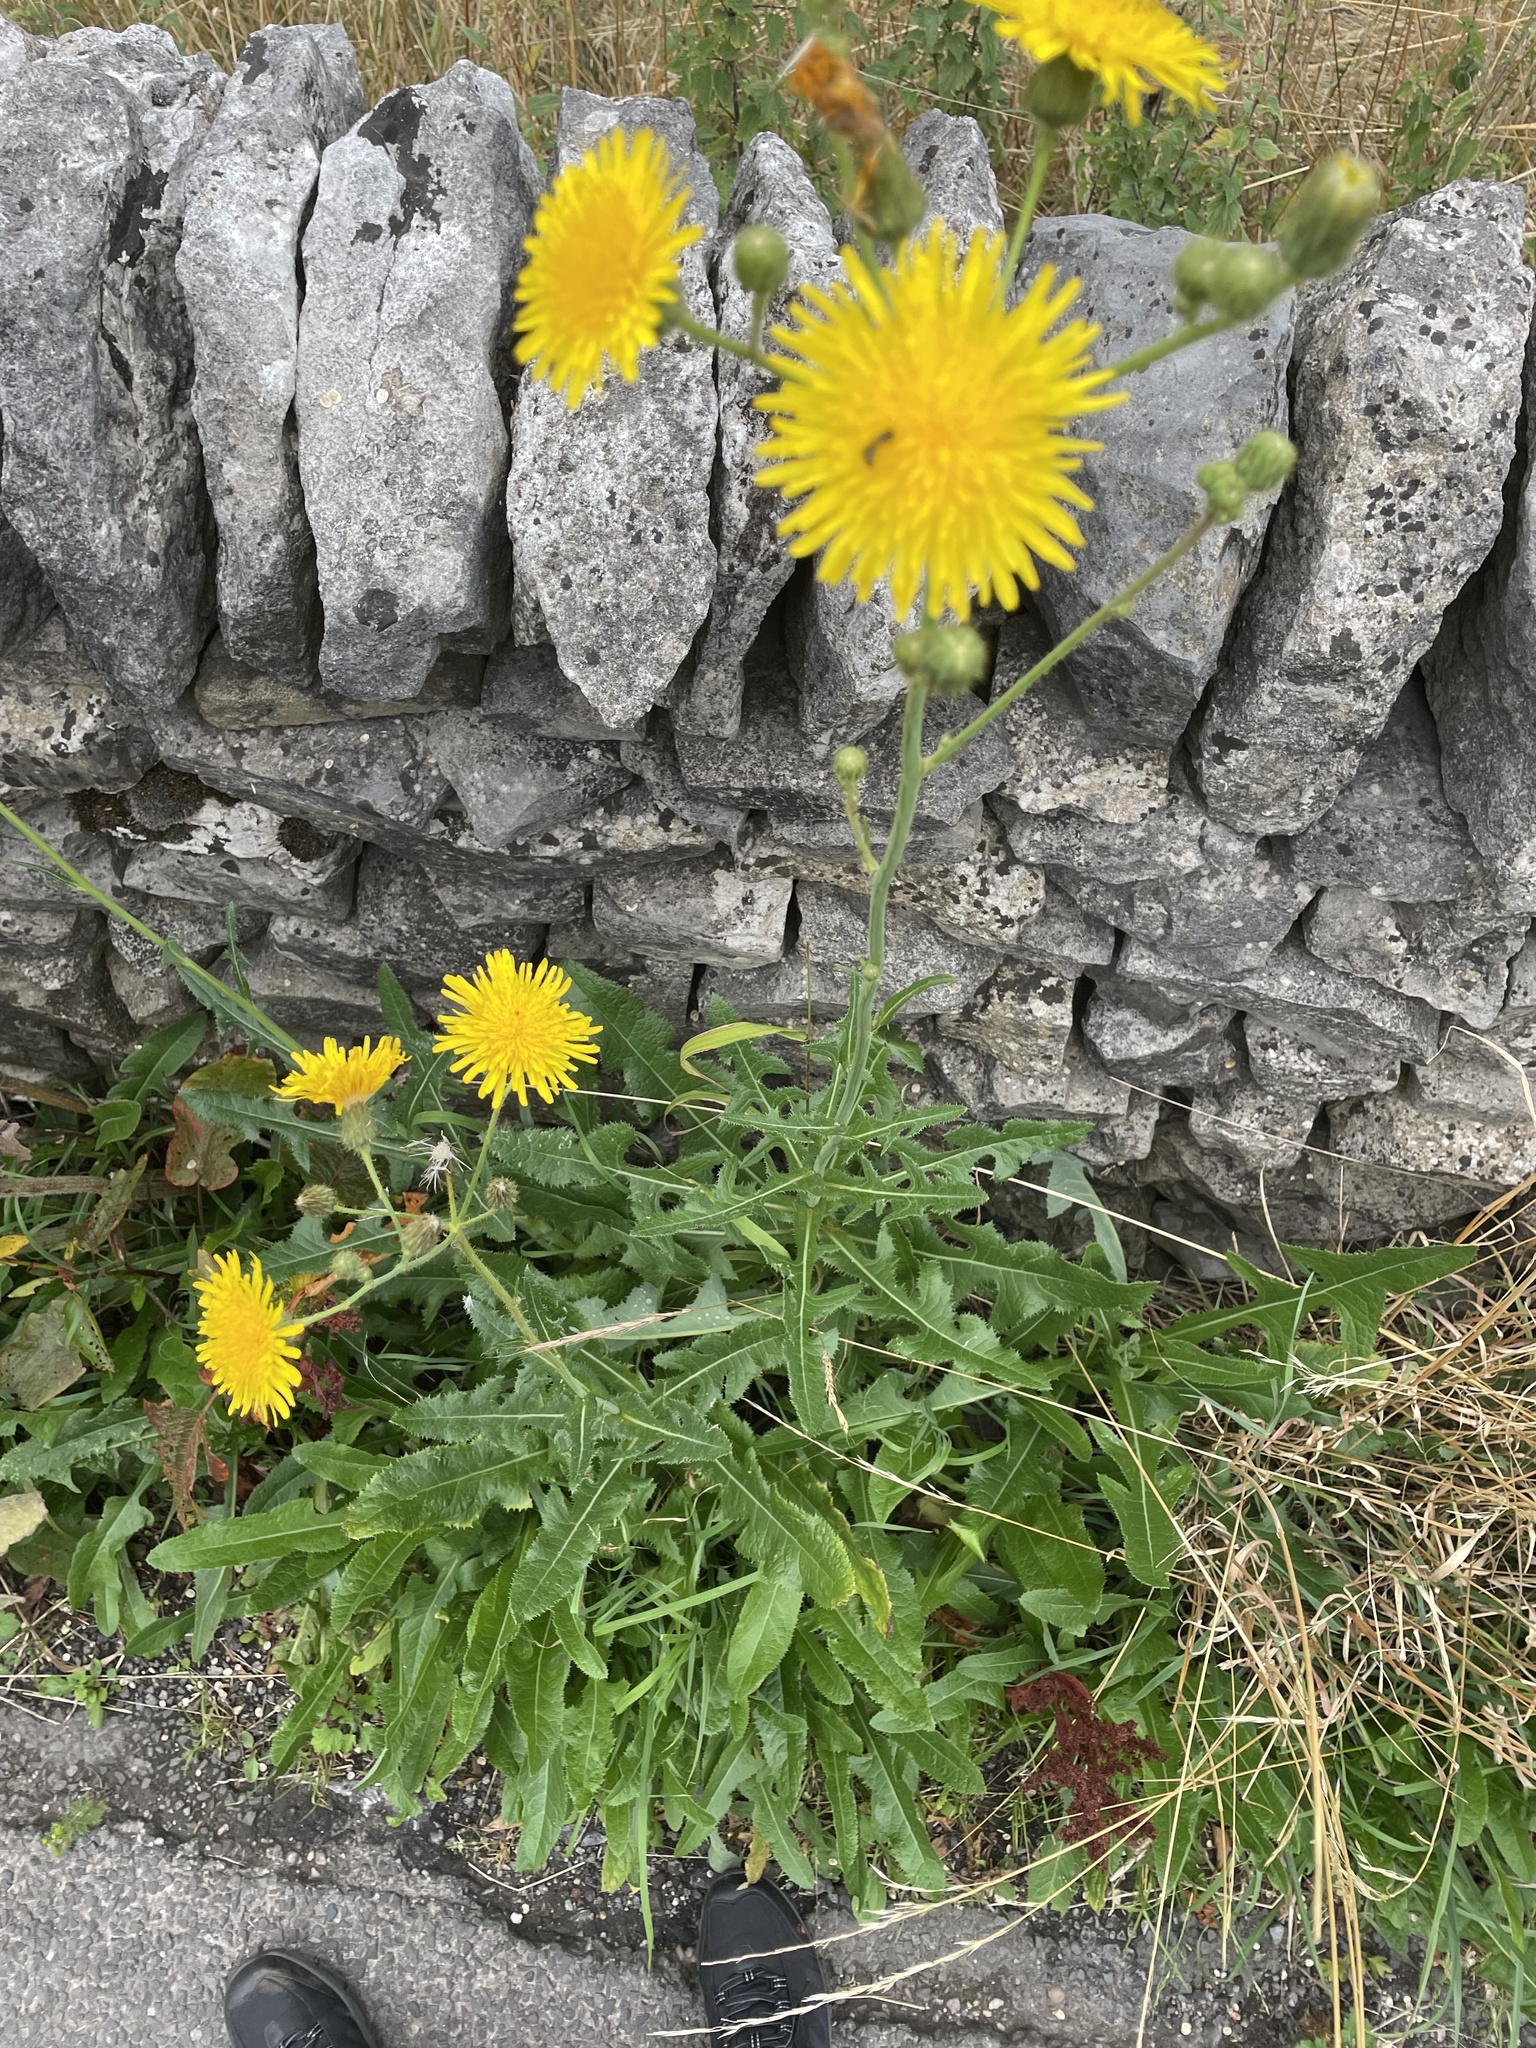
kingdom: Plantae
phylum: Tracheophyta
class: Magnoliopsida
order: Asterales
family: Asteraceae
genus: Sonchus
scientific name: Sonchus arvensis
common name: Perennial sow-thistle
